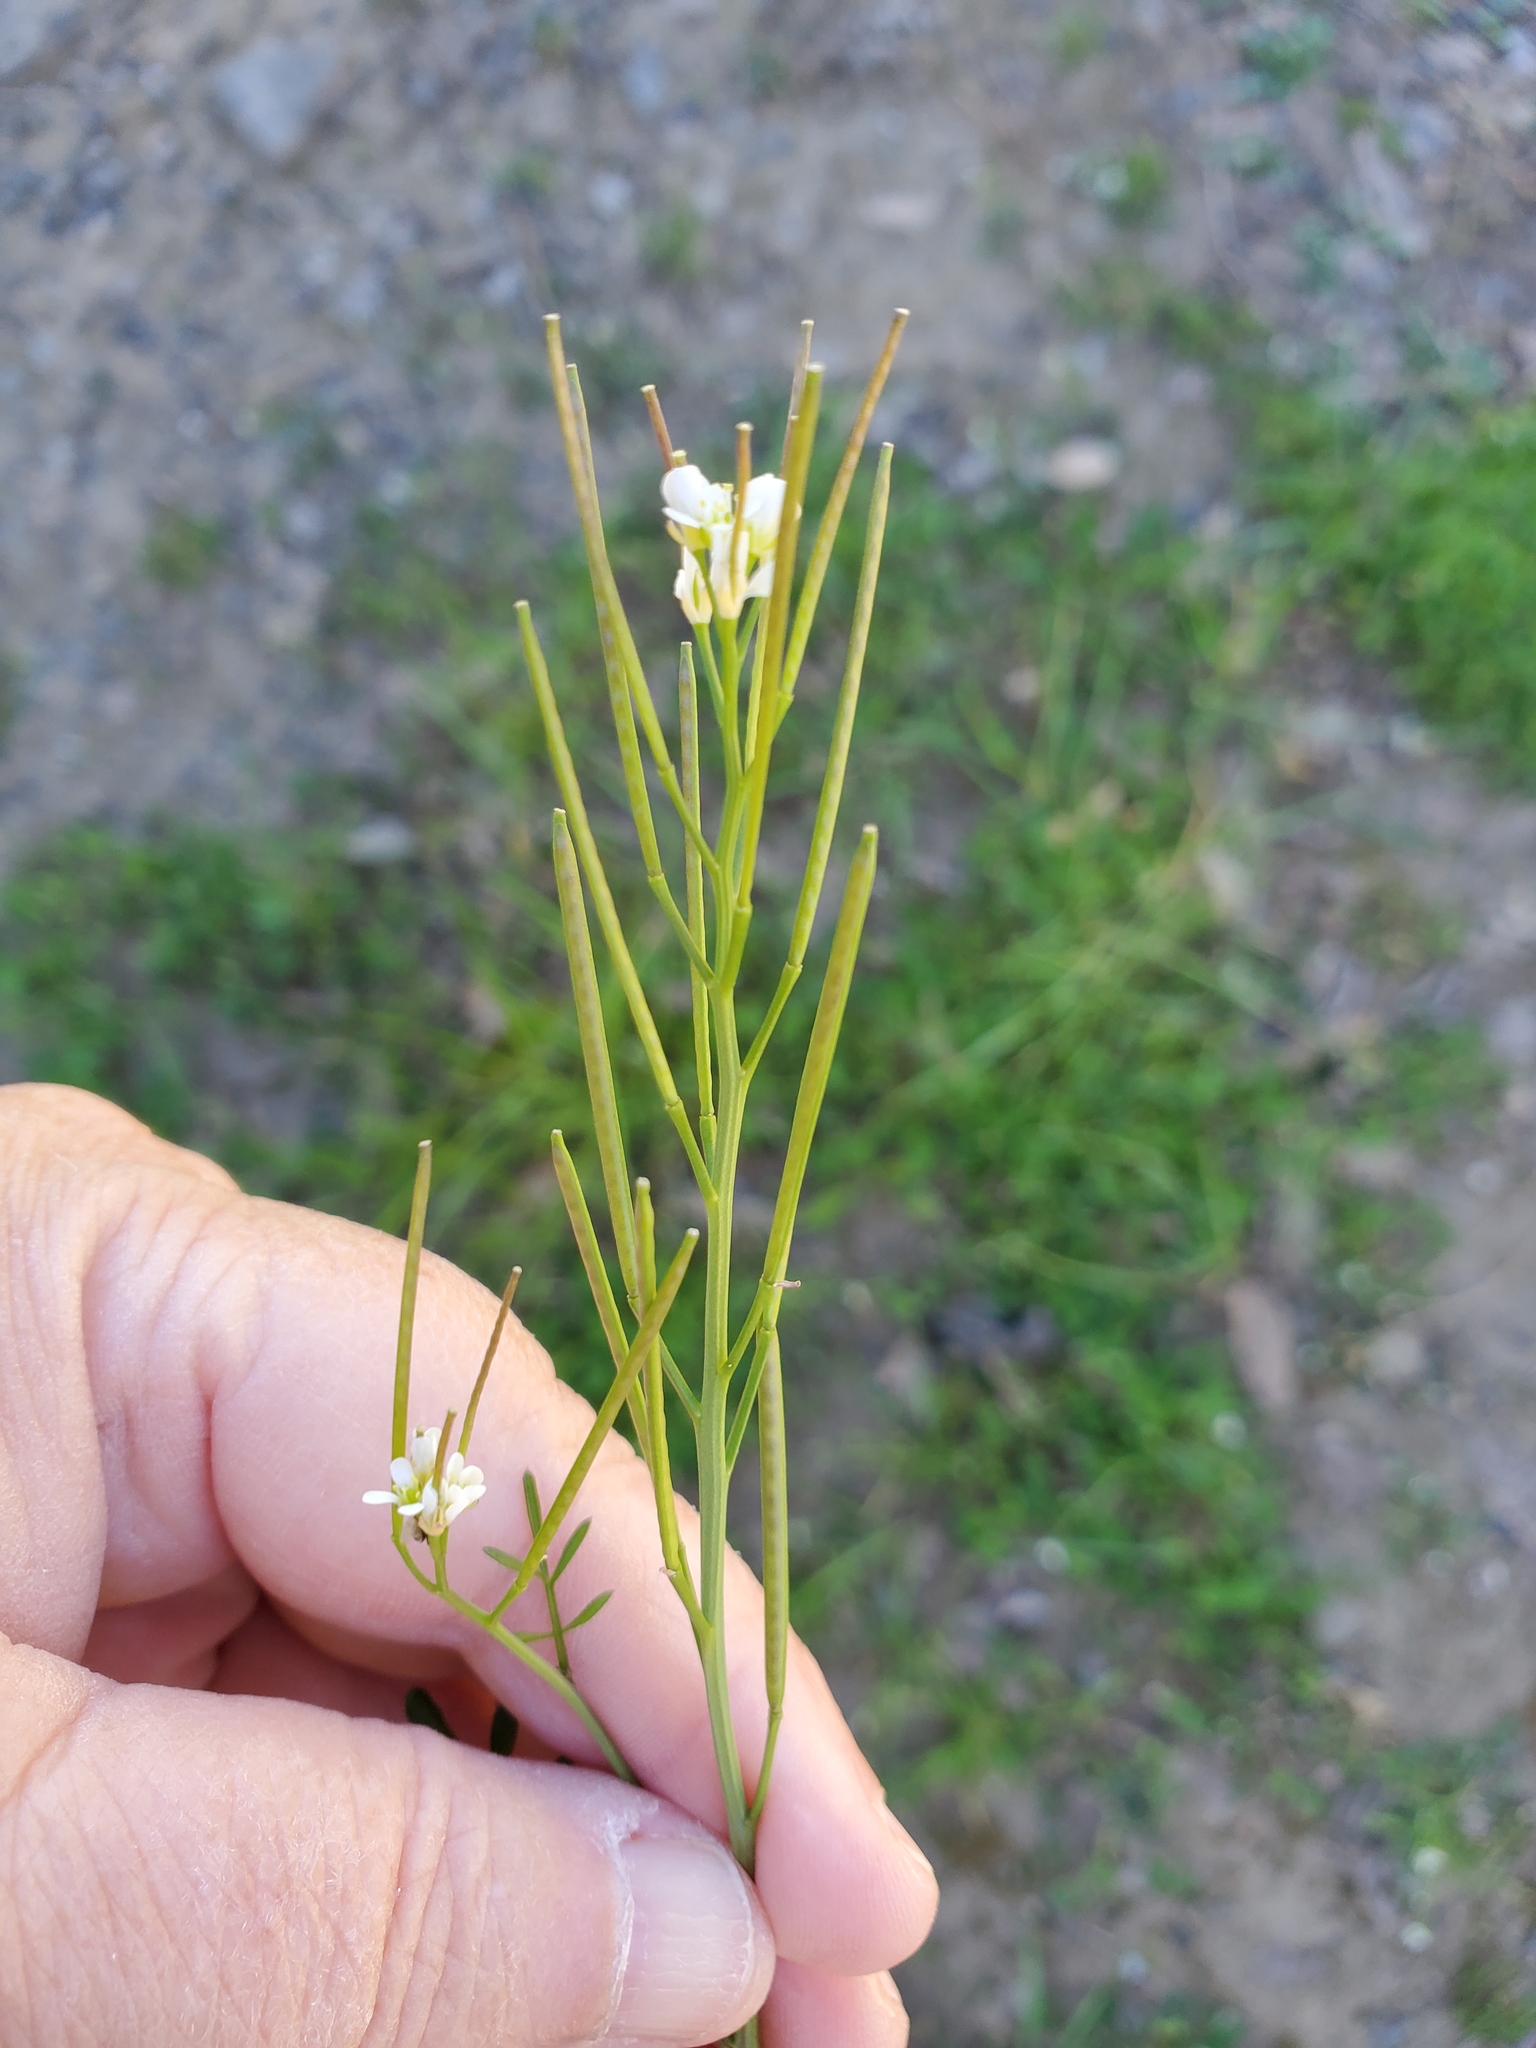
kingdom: Plantae
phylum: Tracheophyta
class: Magnoliopsida
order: Brassicales
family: Brassicaceae
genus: Cardamine
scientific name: Cardamine hirsuta
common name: Hairy bittercress
